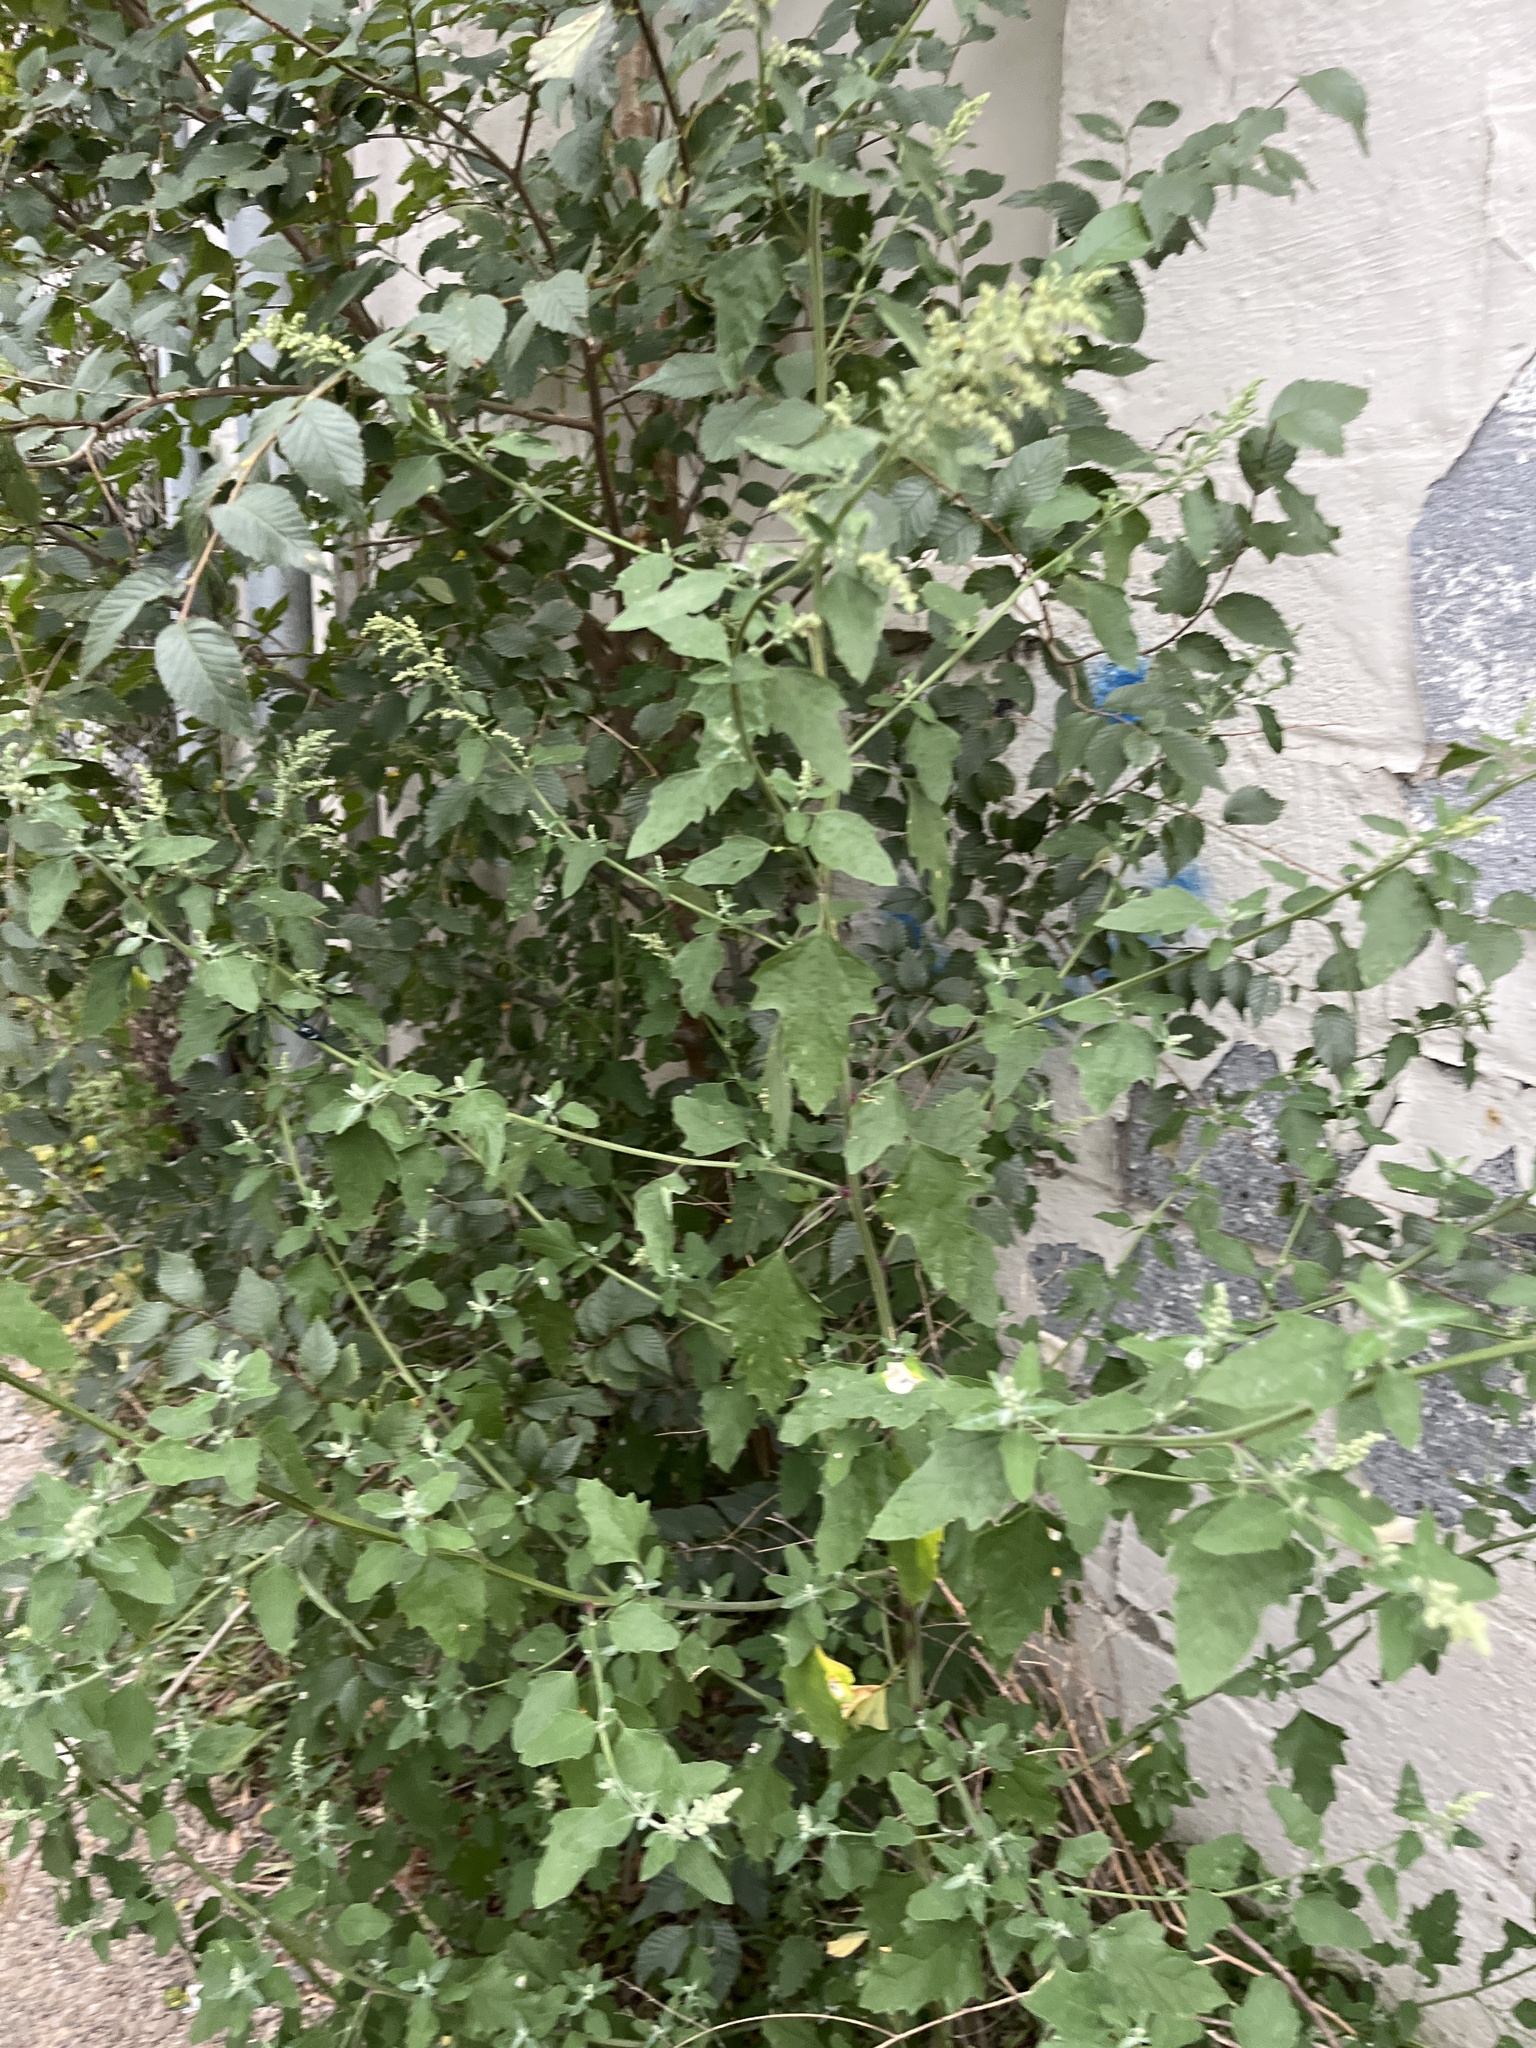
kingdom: Plantae
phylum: Tracheophyta
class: Magnoliopsida
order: Caryophyllales
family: Amaranthaceae
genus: Chenopodium
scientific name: Chenopodium album
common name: Fat-hen
